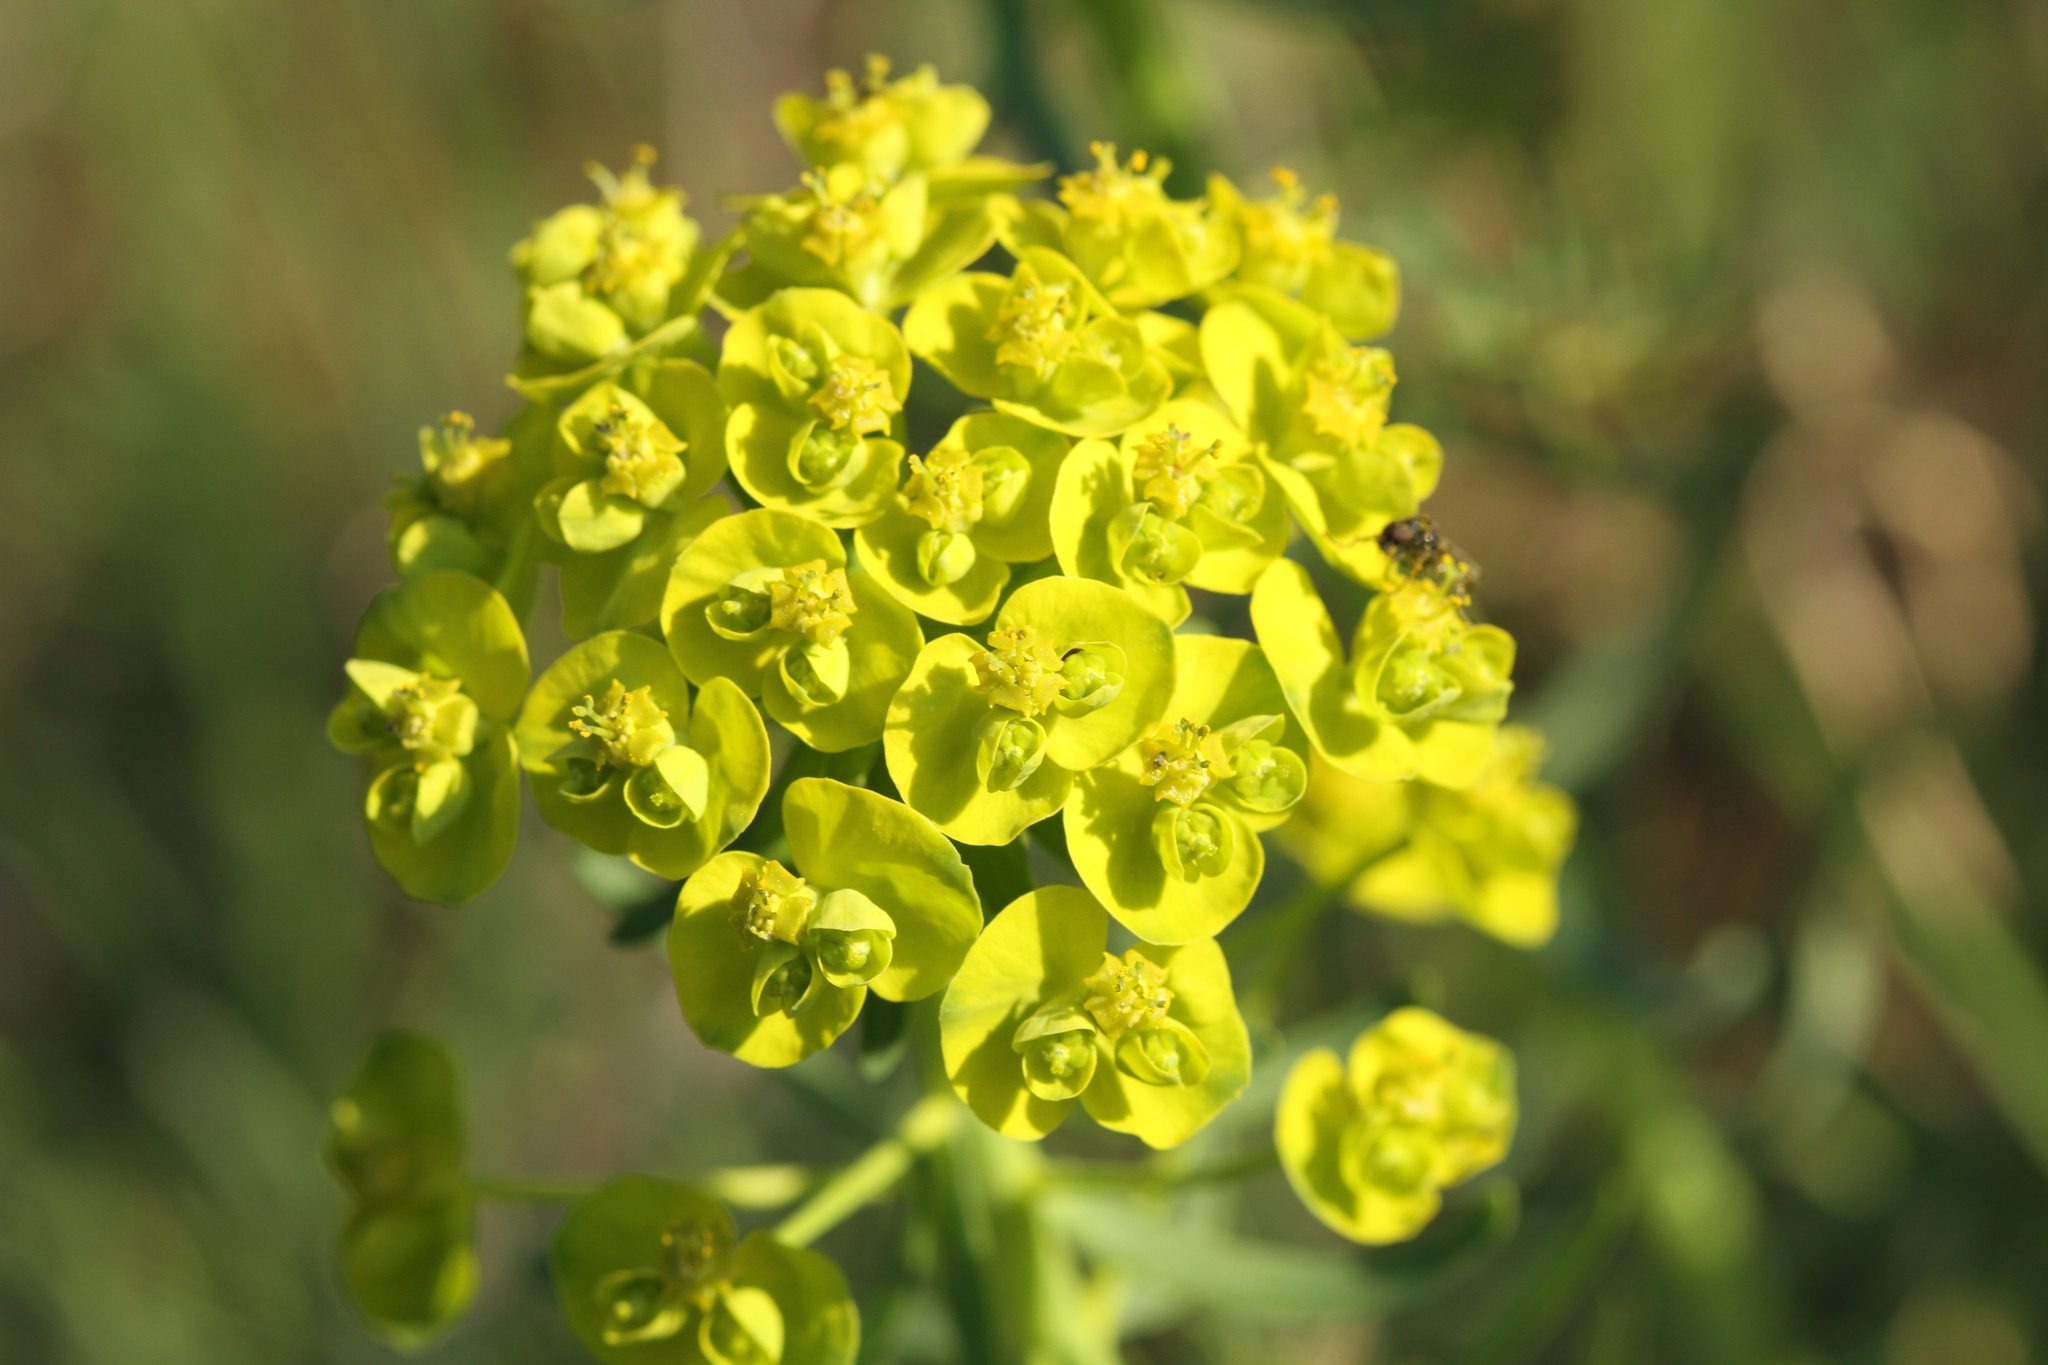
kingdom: Plantae
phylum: Tracheophyta
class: Magnoliopsida
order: Malpighiales
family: Euphorbiaceae
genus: Euphorbia
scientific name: Euphorbia cyparissias
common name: Cypress spurge
